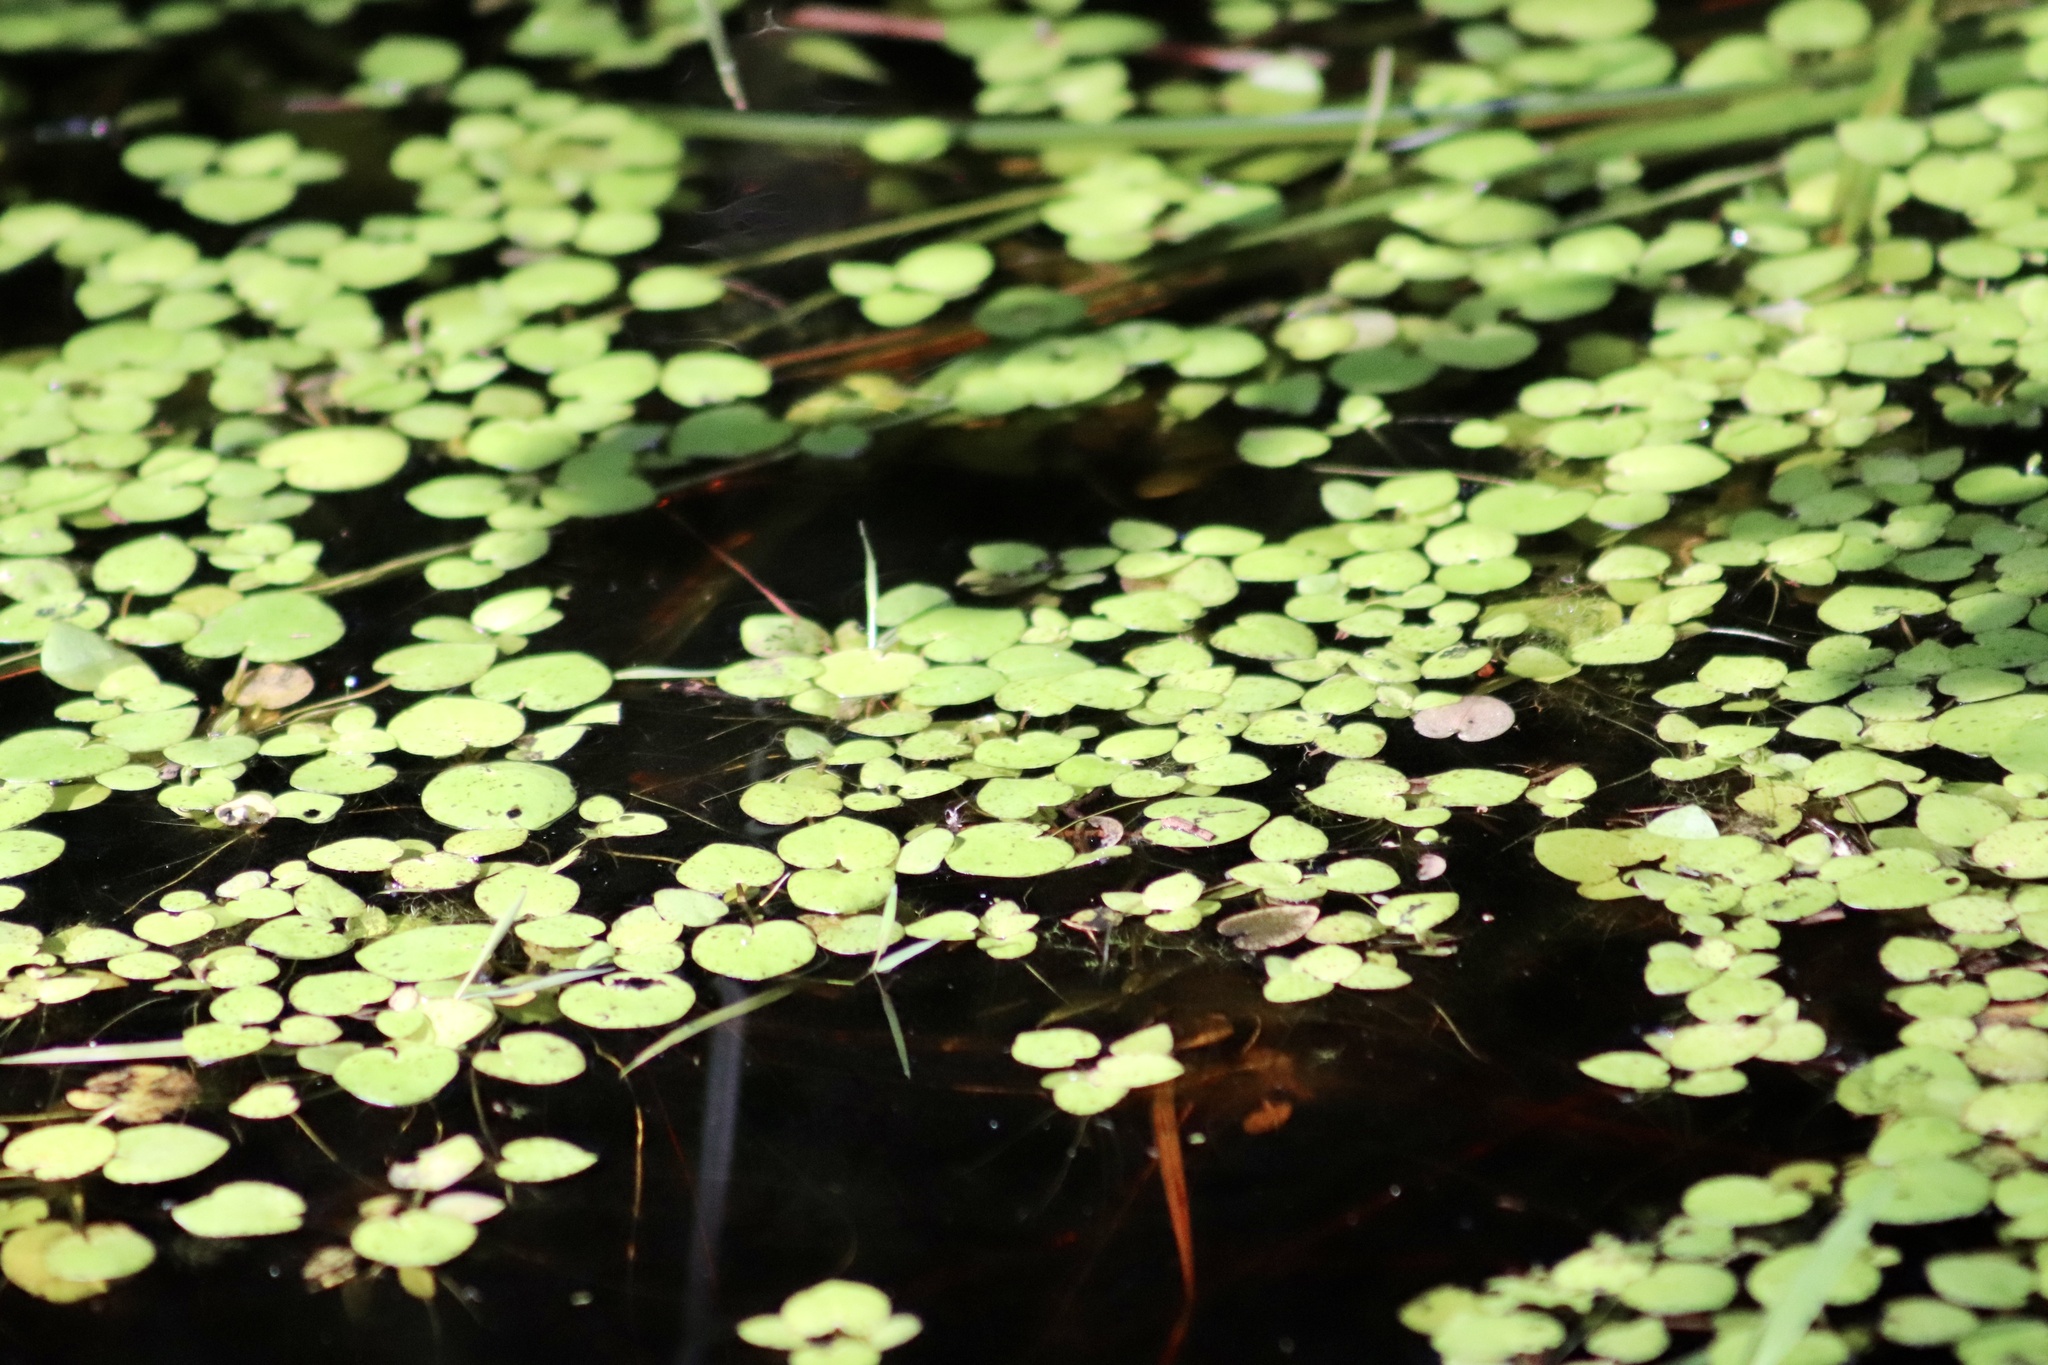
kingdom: Plantae
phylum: Tracheophyta
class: Liliopsida
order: Alismatales
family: Hydrocharitaceae
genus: Hydrocharis
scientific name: Hydrocharis spongia
